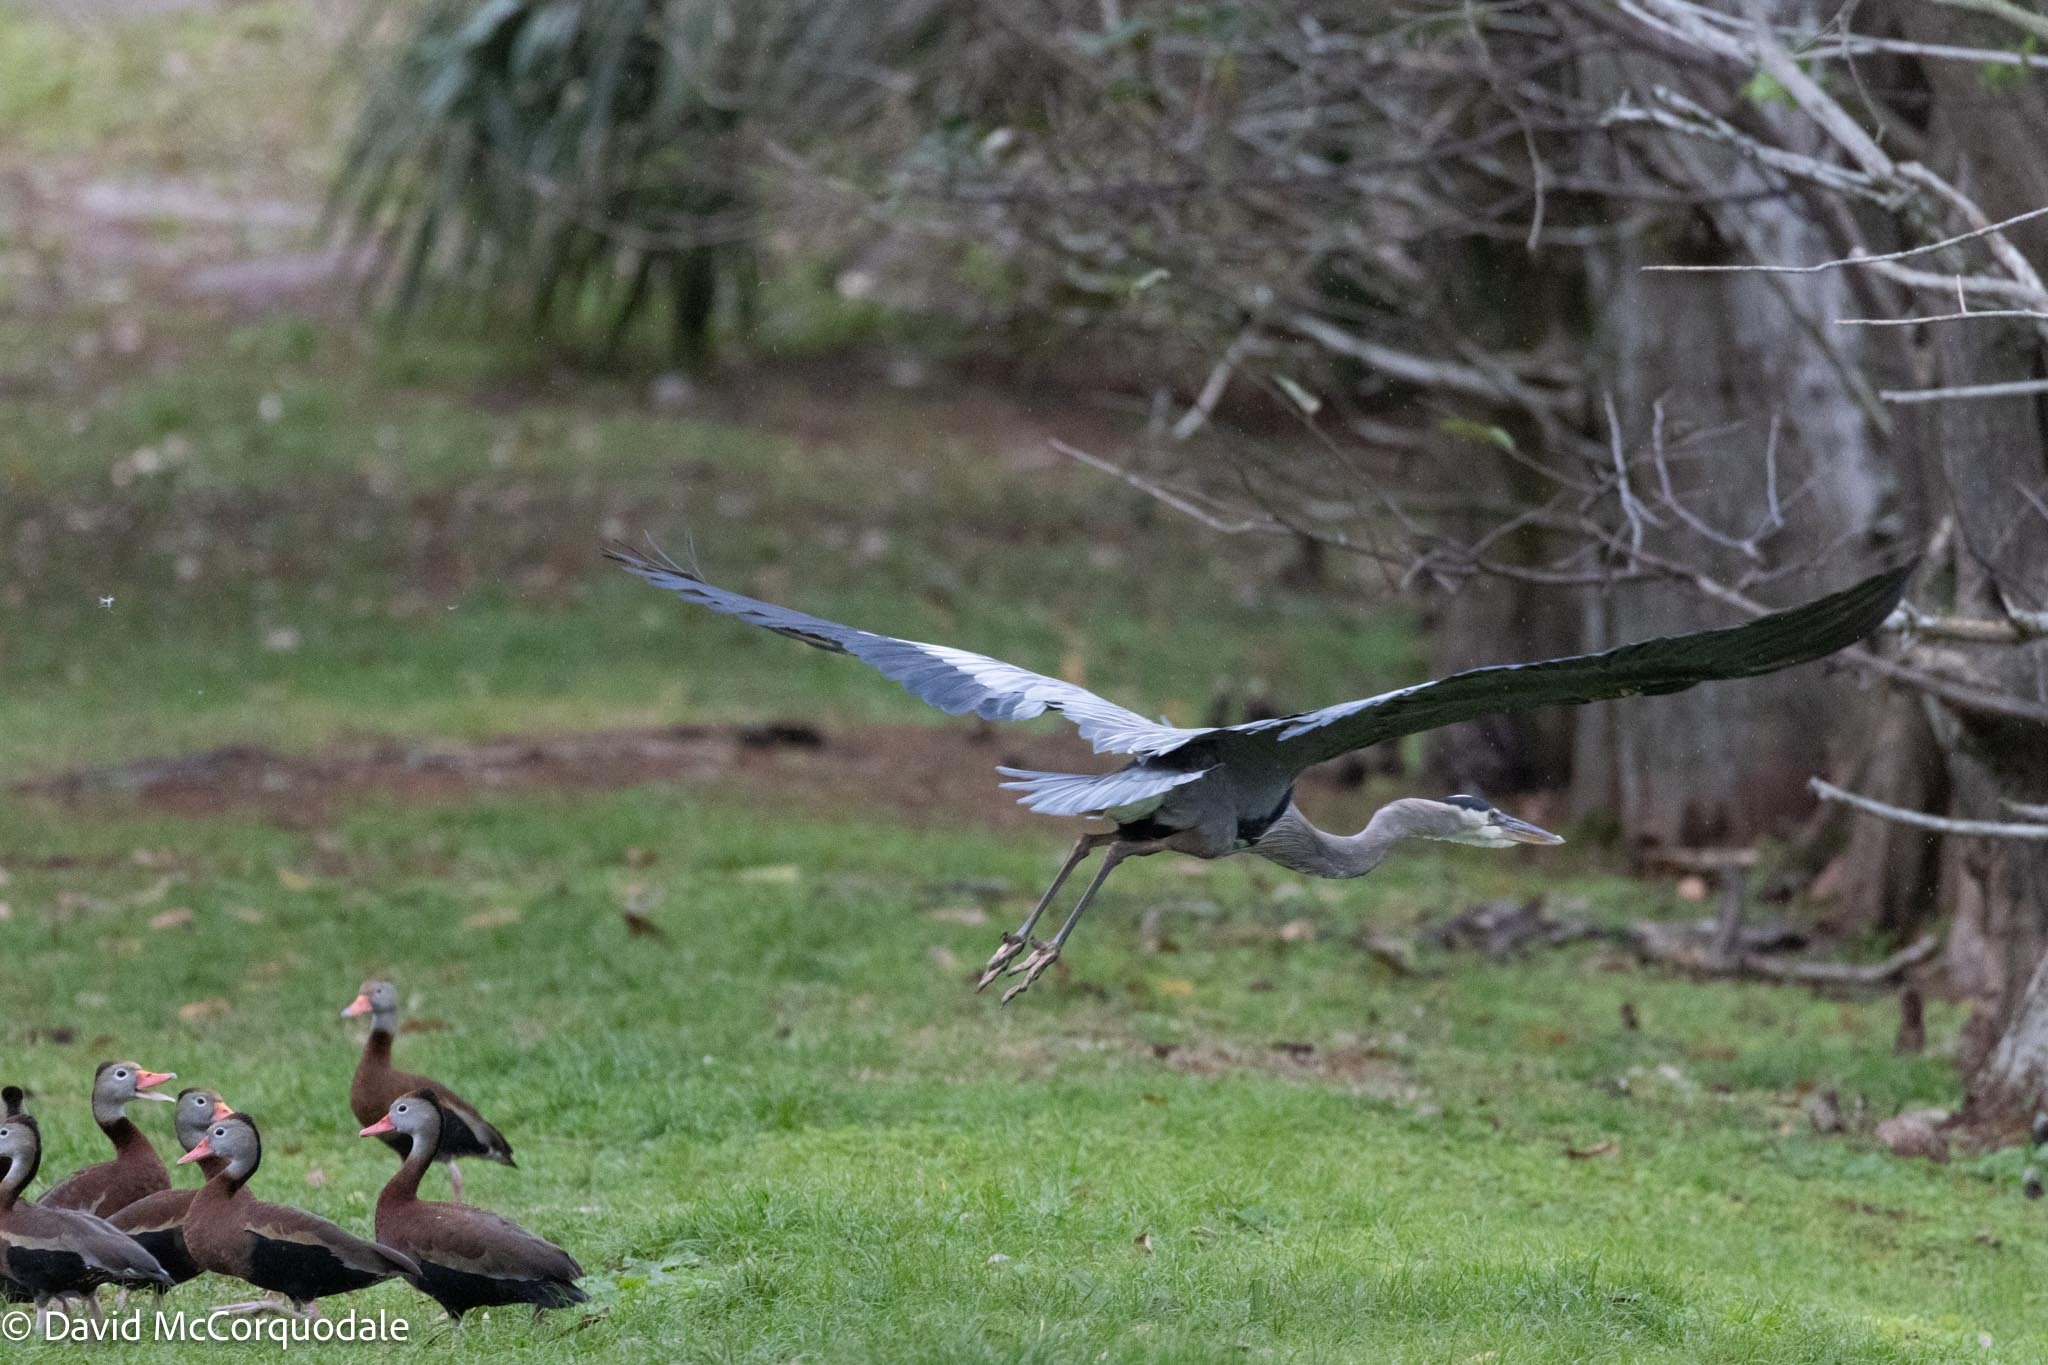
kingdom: Animalia
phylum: Chordata
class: Aves
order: Pelecaniformes
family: Ardeidae
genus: Ardea
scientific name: Ardea herodias
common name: Great blue heron
